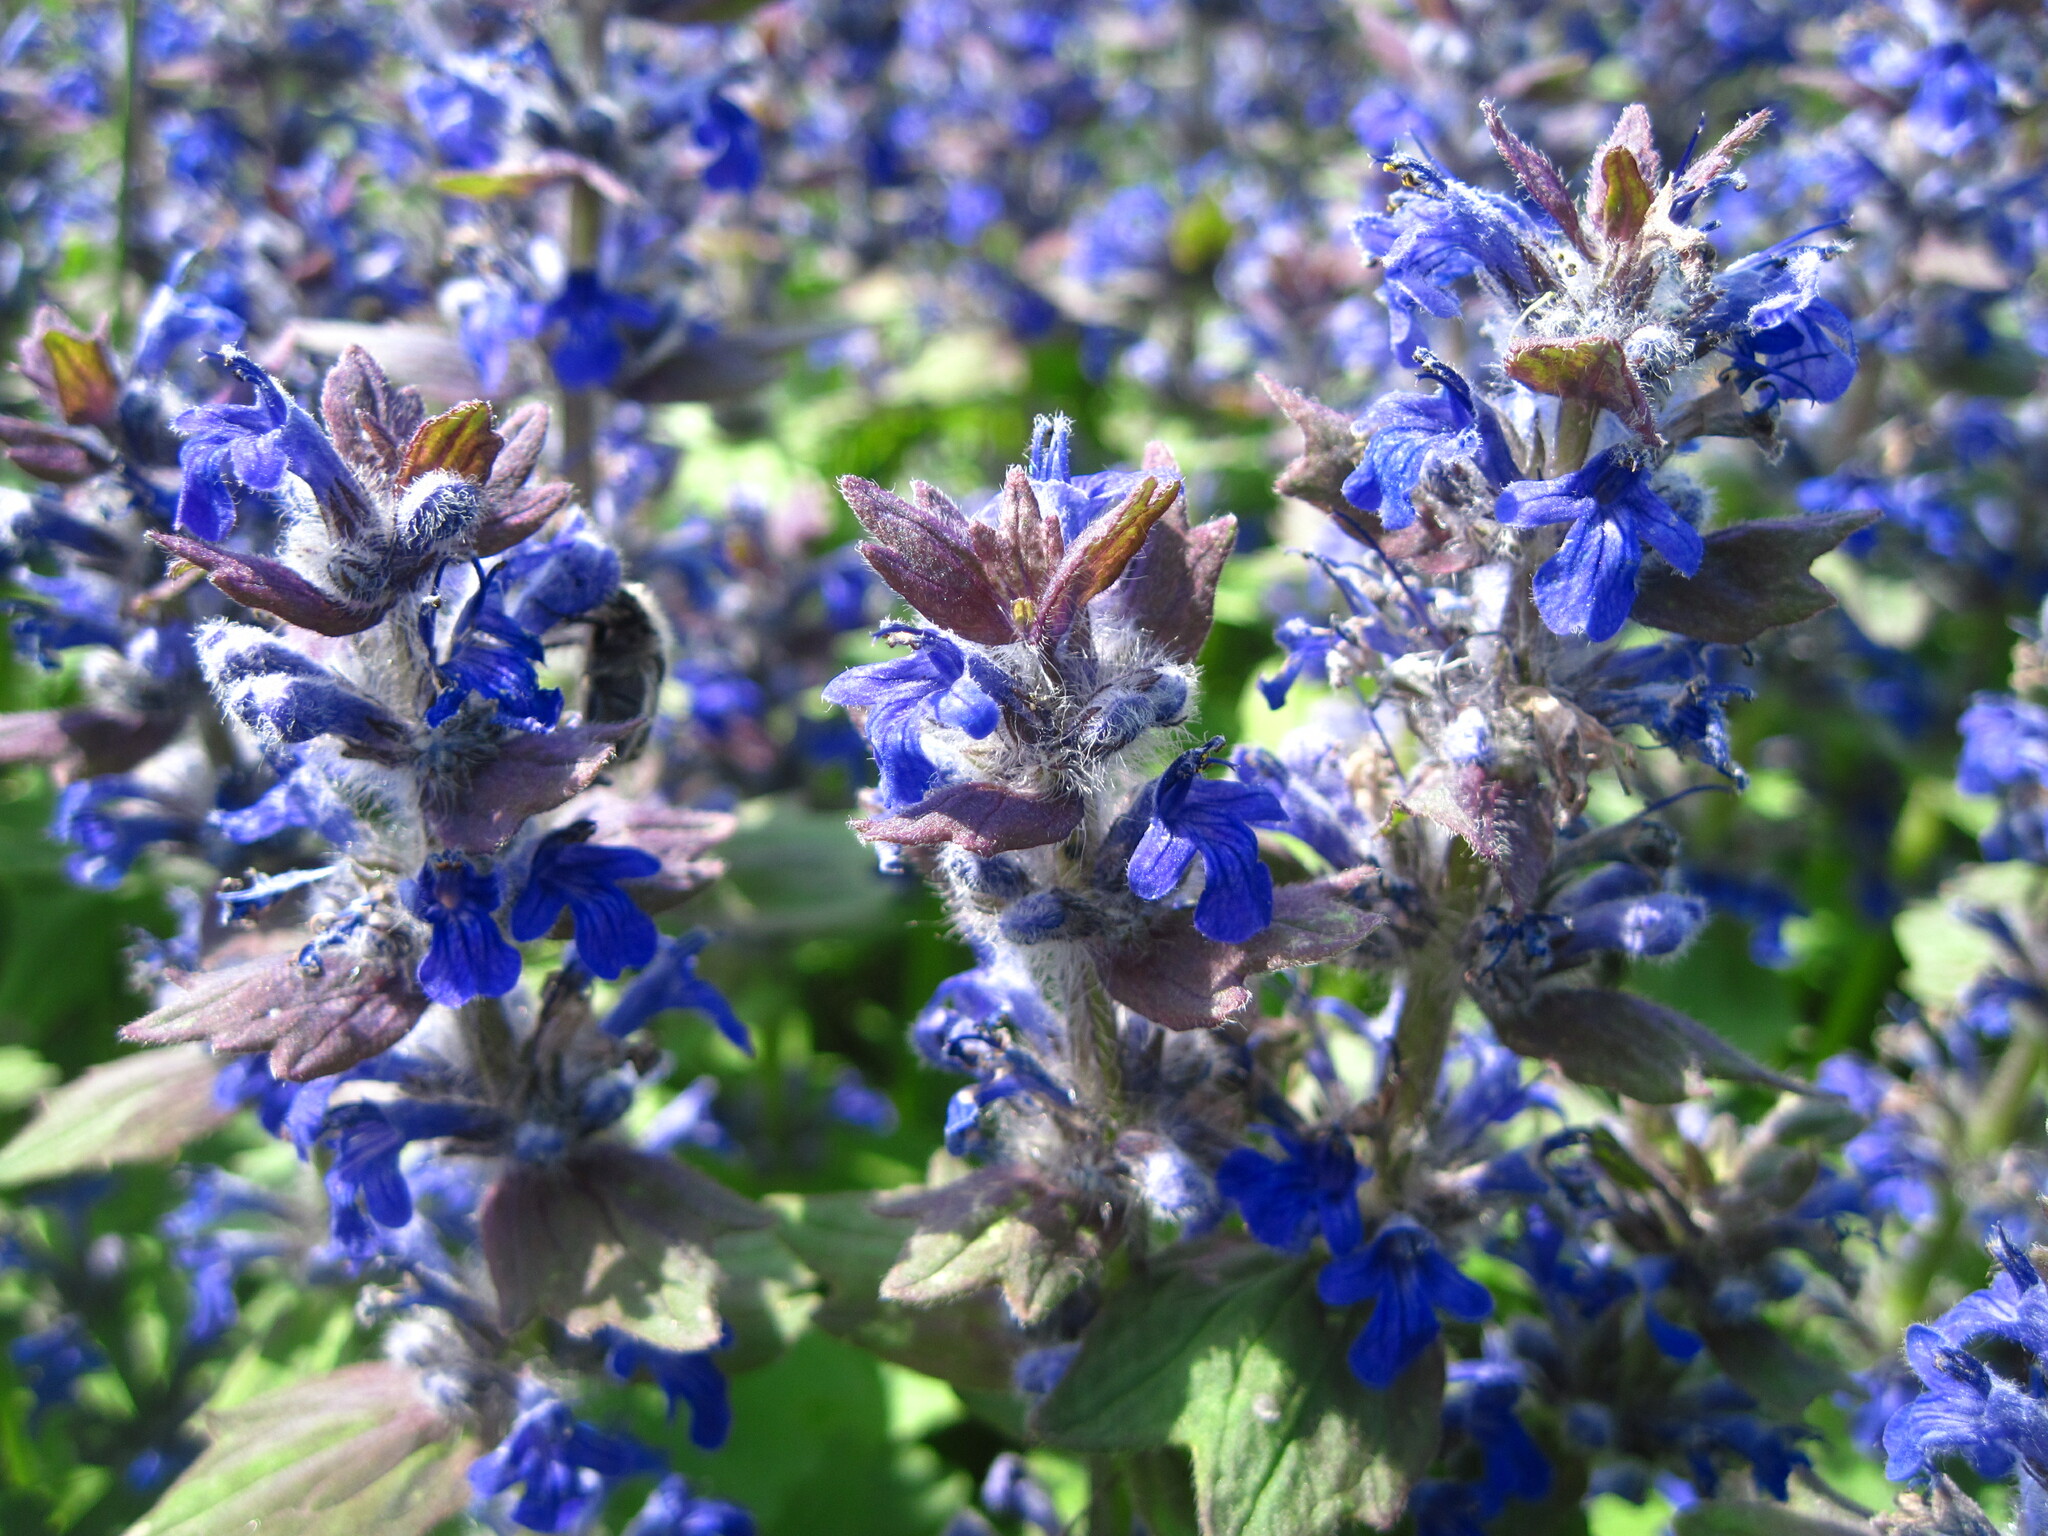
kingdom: Plantae
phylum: Tracheophyta
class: Magnoliopsida
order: Lamiales
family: Lamiaceae
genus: Ajuga
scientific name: Ajuga genevensis
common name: Blue bugle
